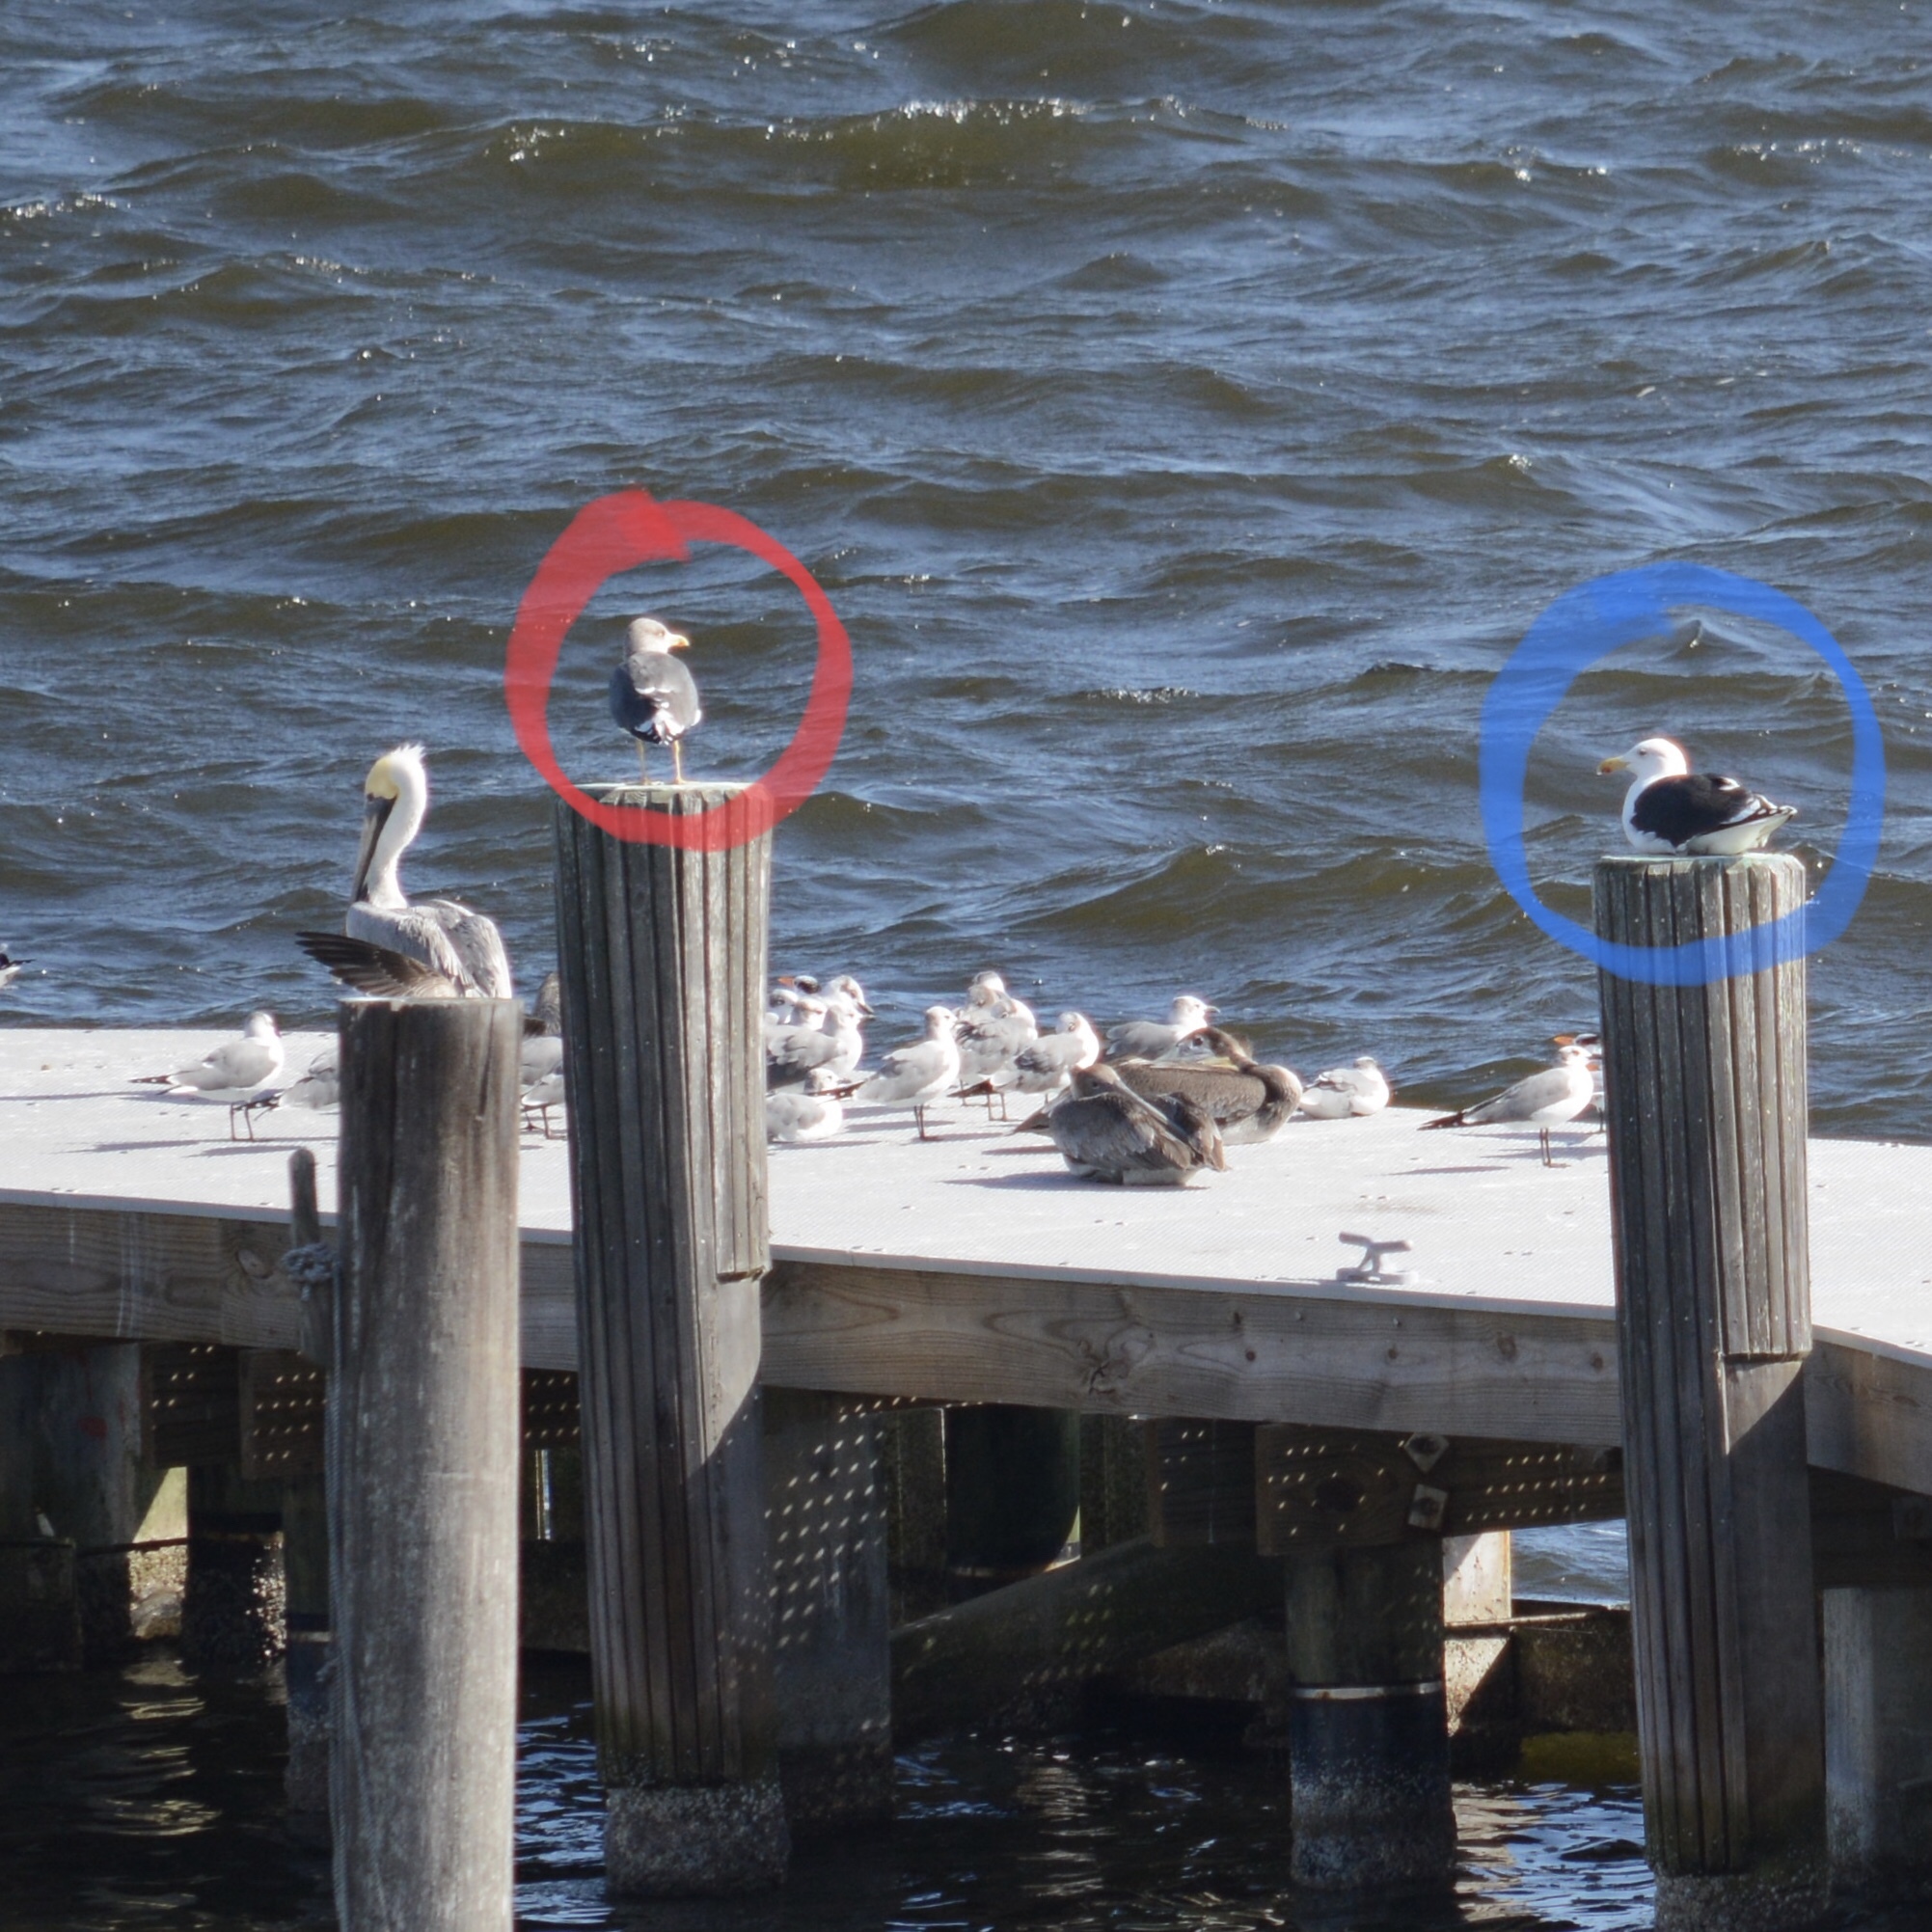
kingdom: Animalia
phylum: Chordata
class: Aves
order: Charadriiformes
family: Laridae
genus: Larus
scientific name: Larus fuscus
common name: Lesser black-backed gull
